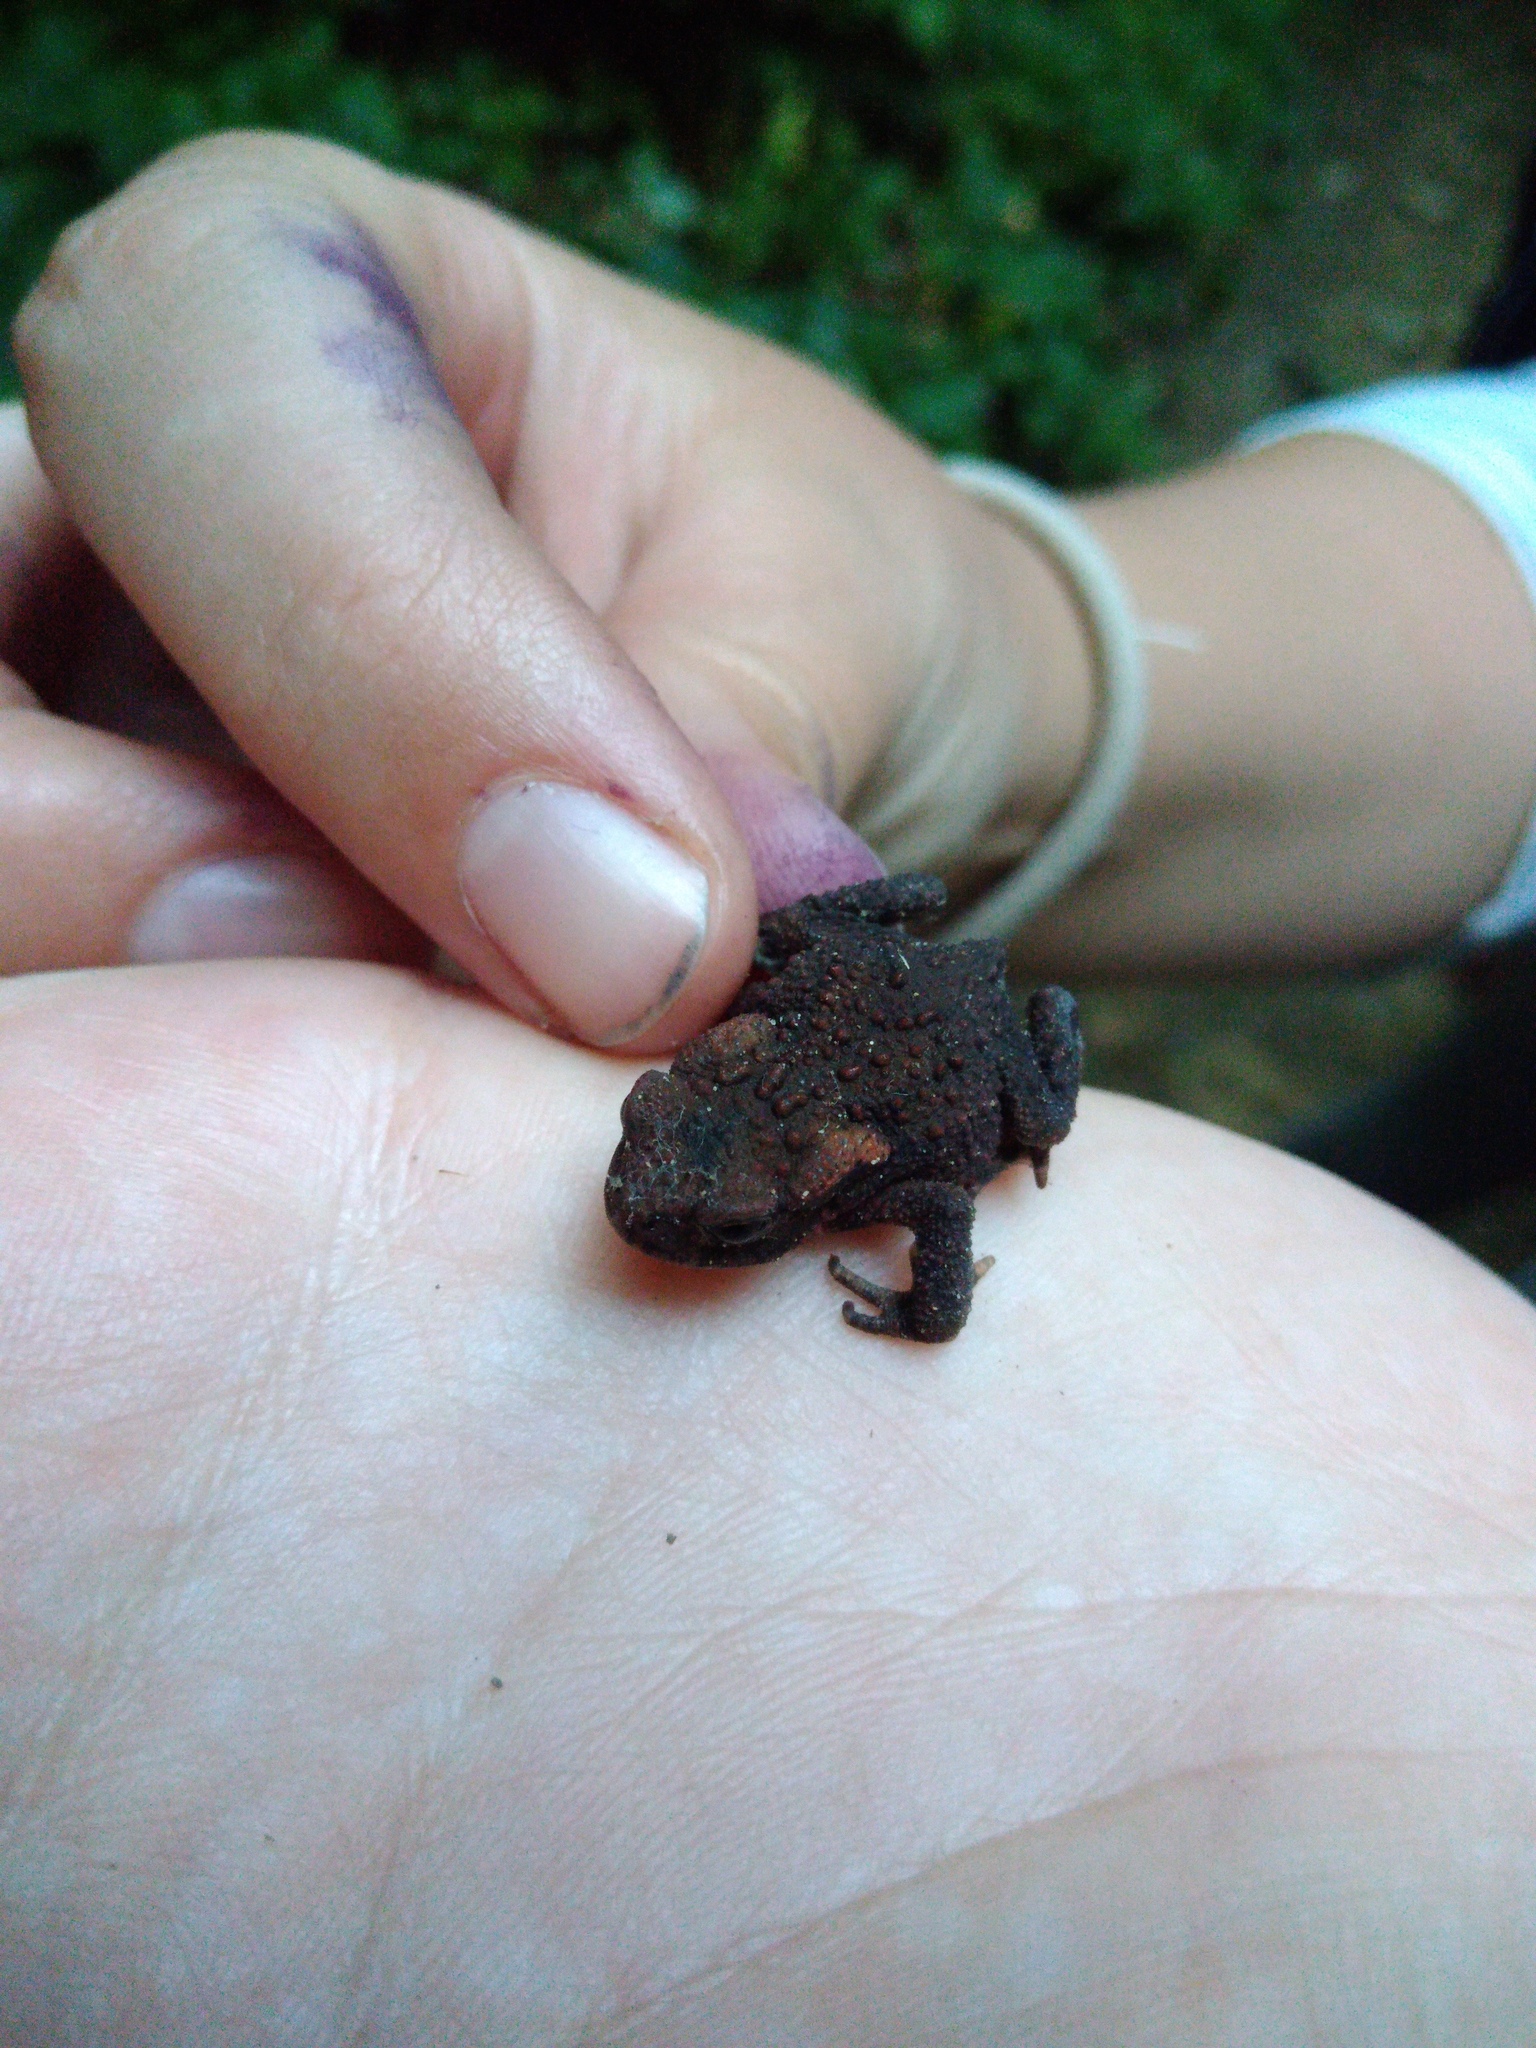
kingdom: Animalia
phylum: Chordata
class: Amphibia
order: Anura
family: Bufonidae
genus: Bufo
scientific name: Bufo bufo
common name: Common toad
